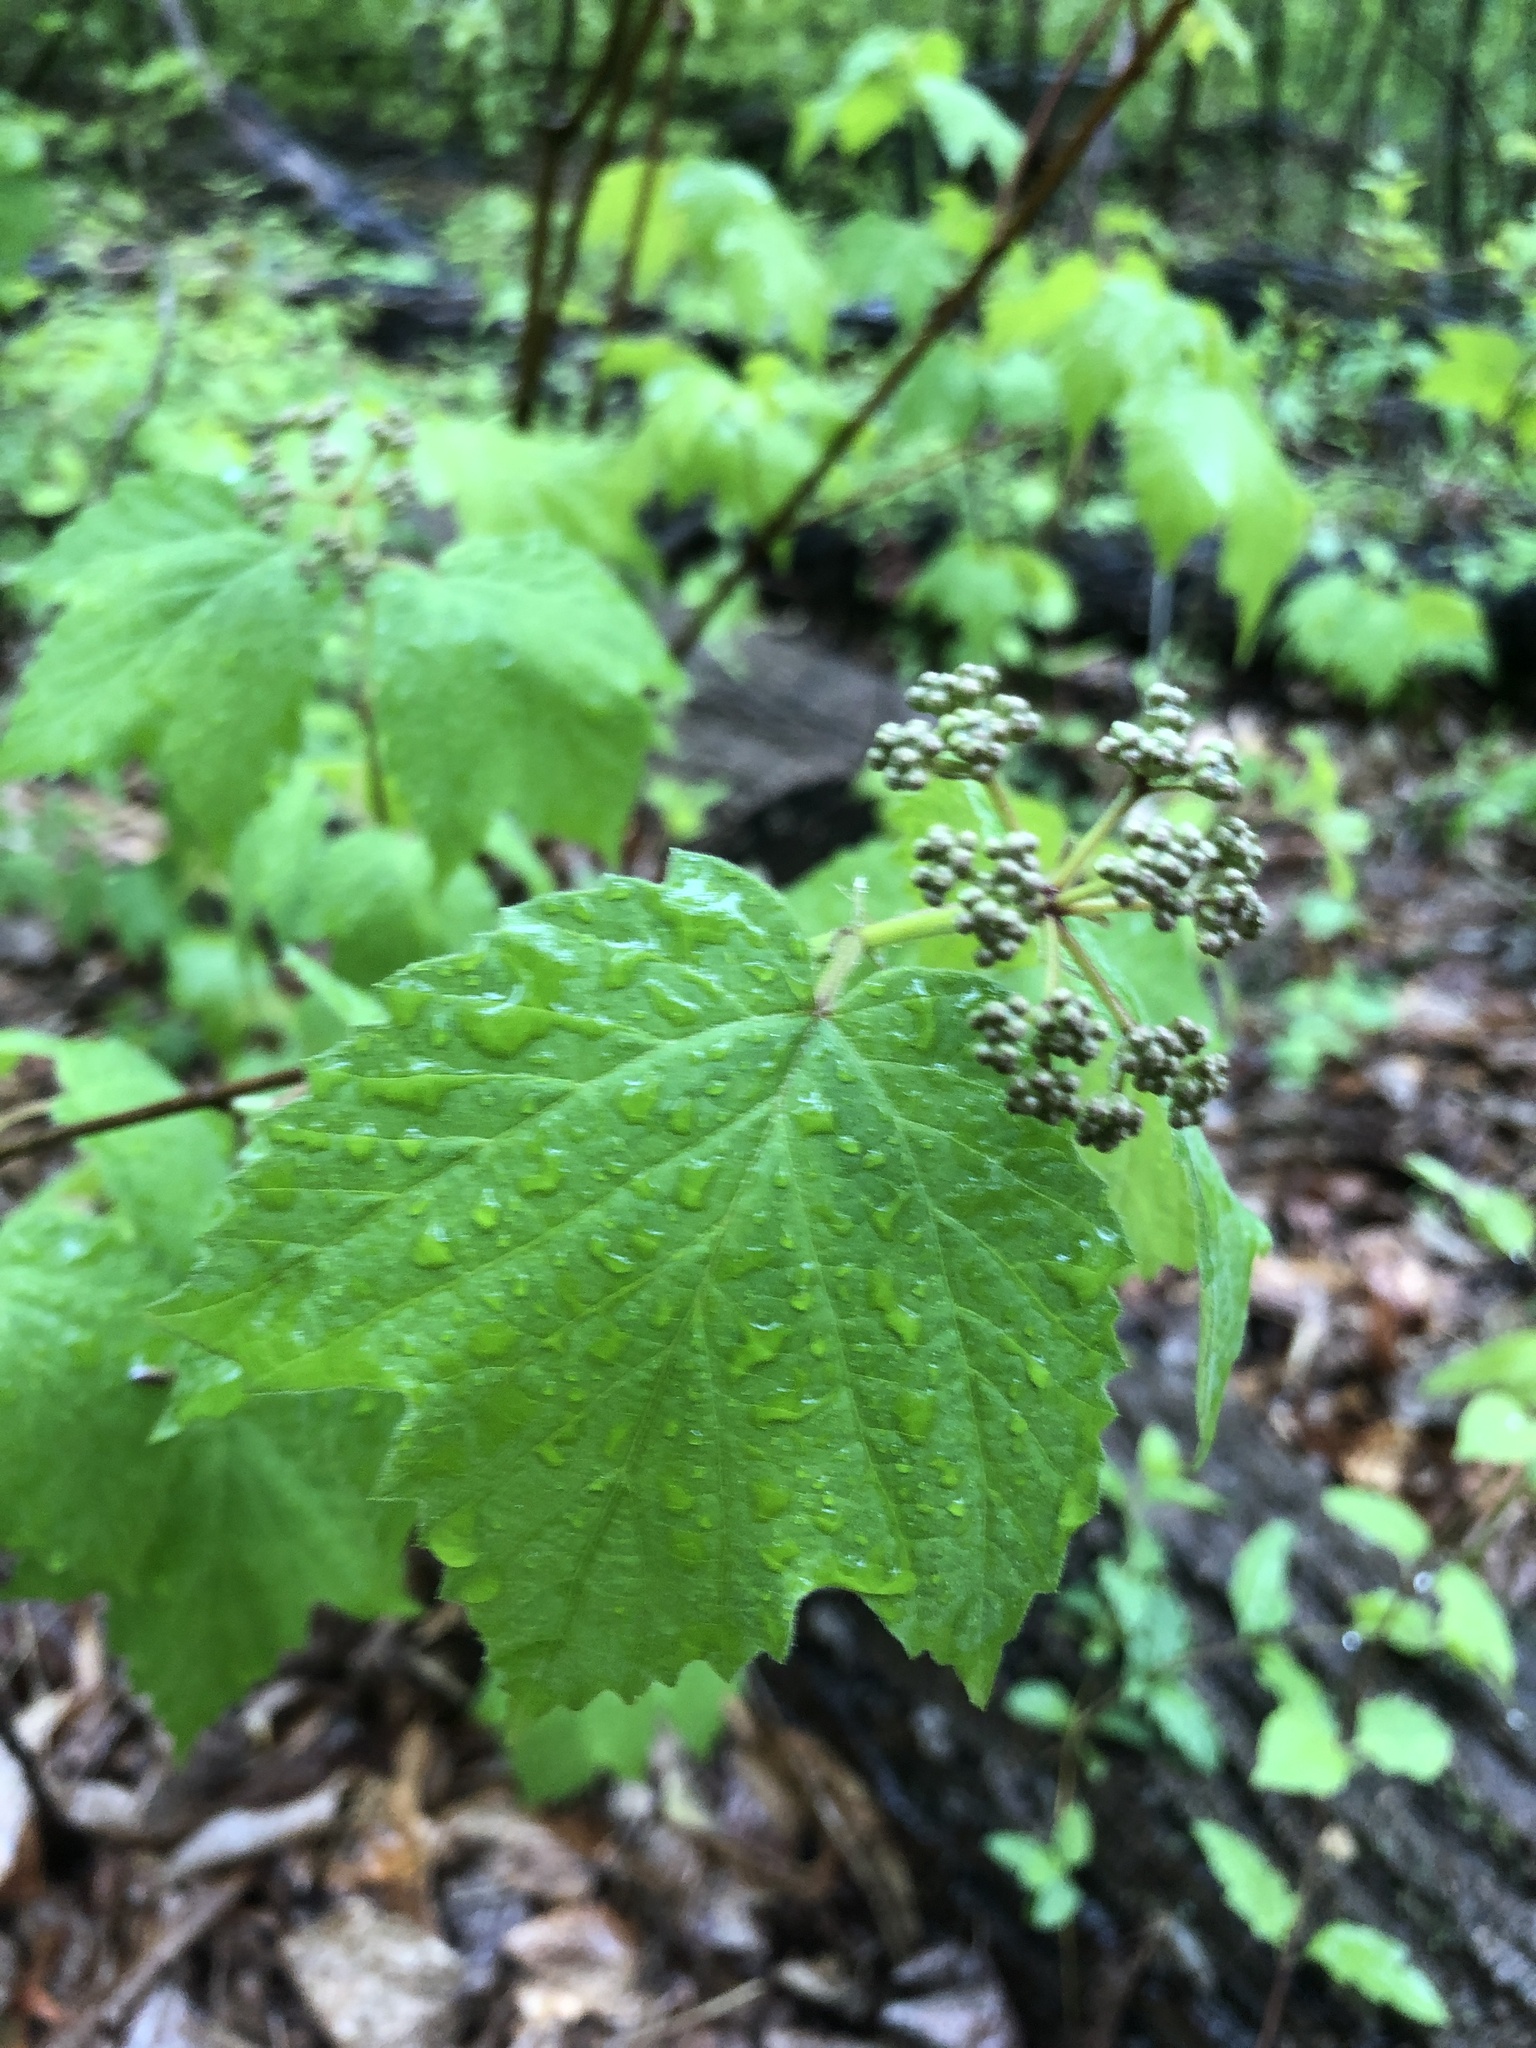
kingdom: Plantae
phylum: Tracheophyta
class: Magnoliopsida
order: Dipsacales
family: Viburnaceae
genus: Viburnum
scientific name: Viburnum acerifolium
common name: Dockmackie
